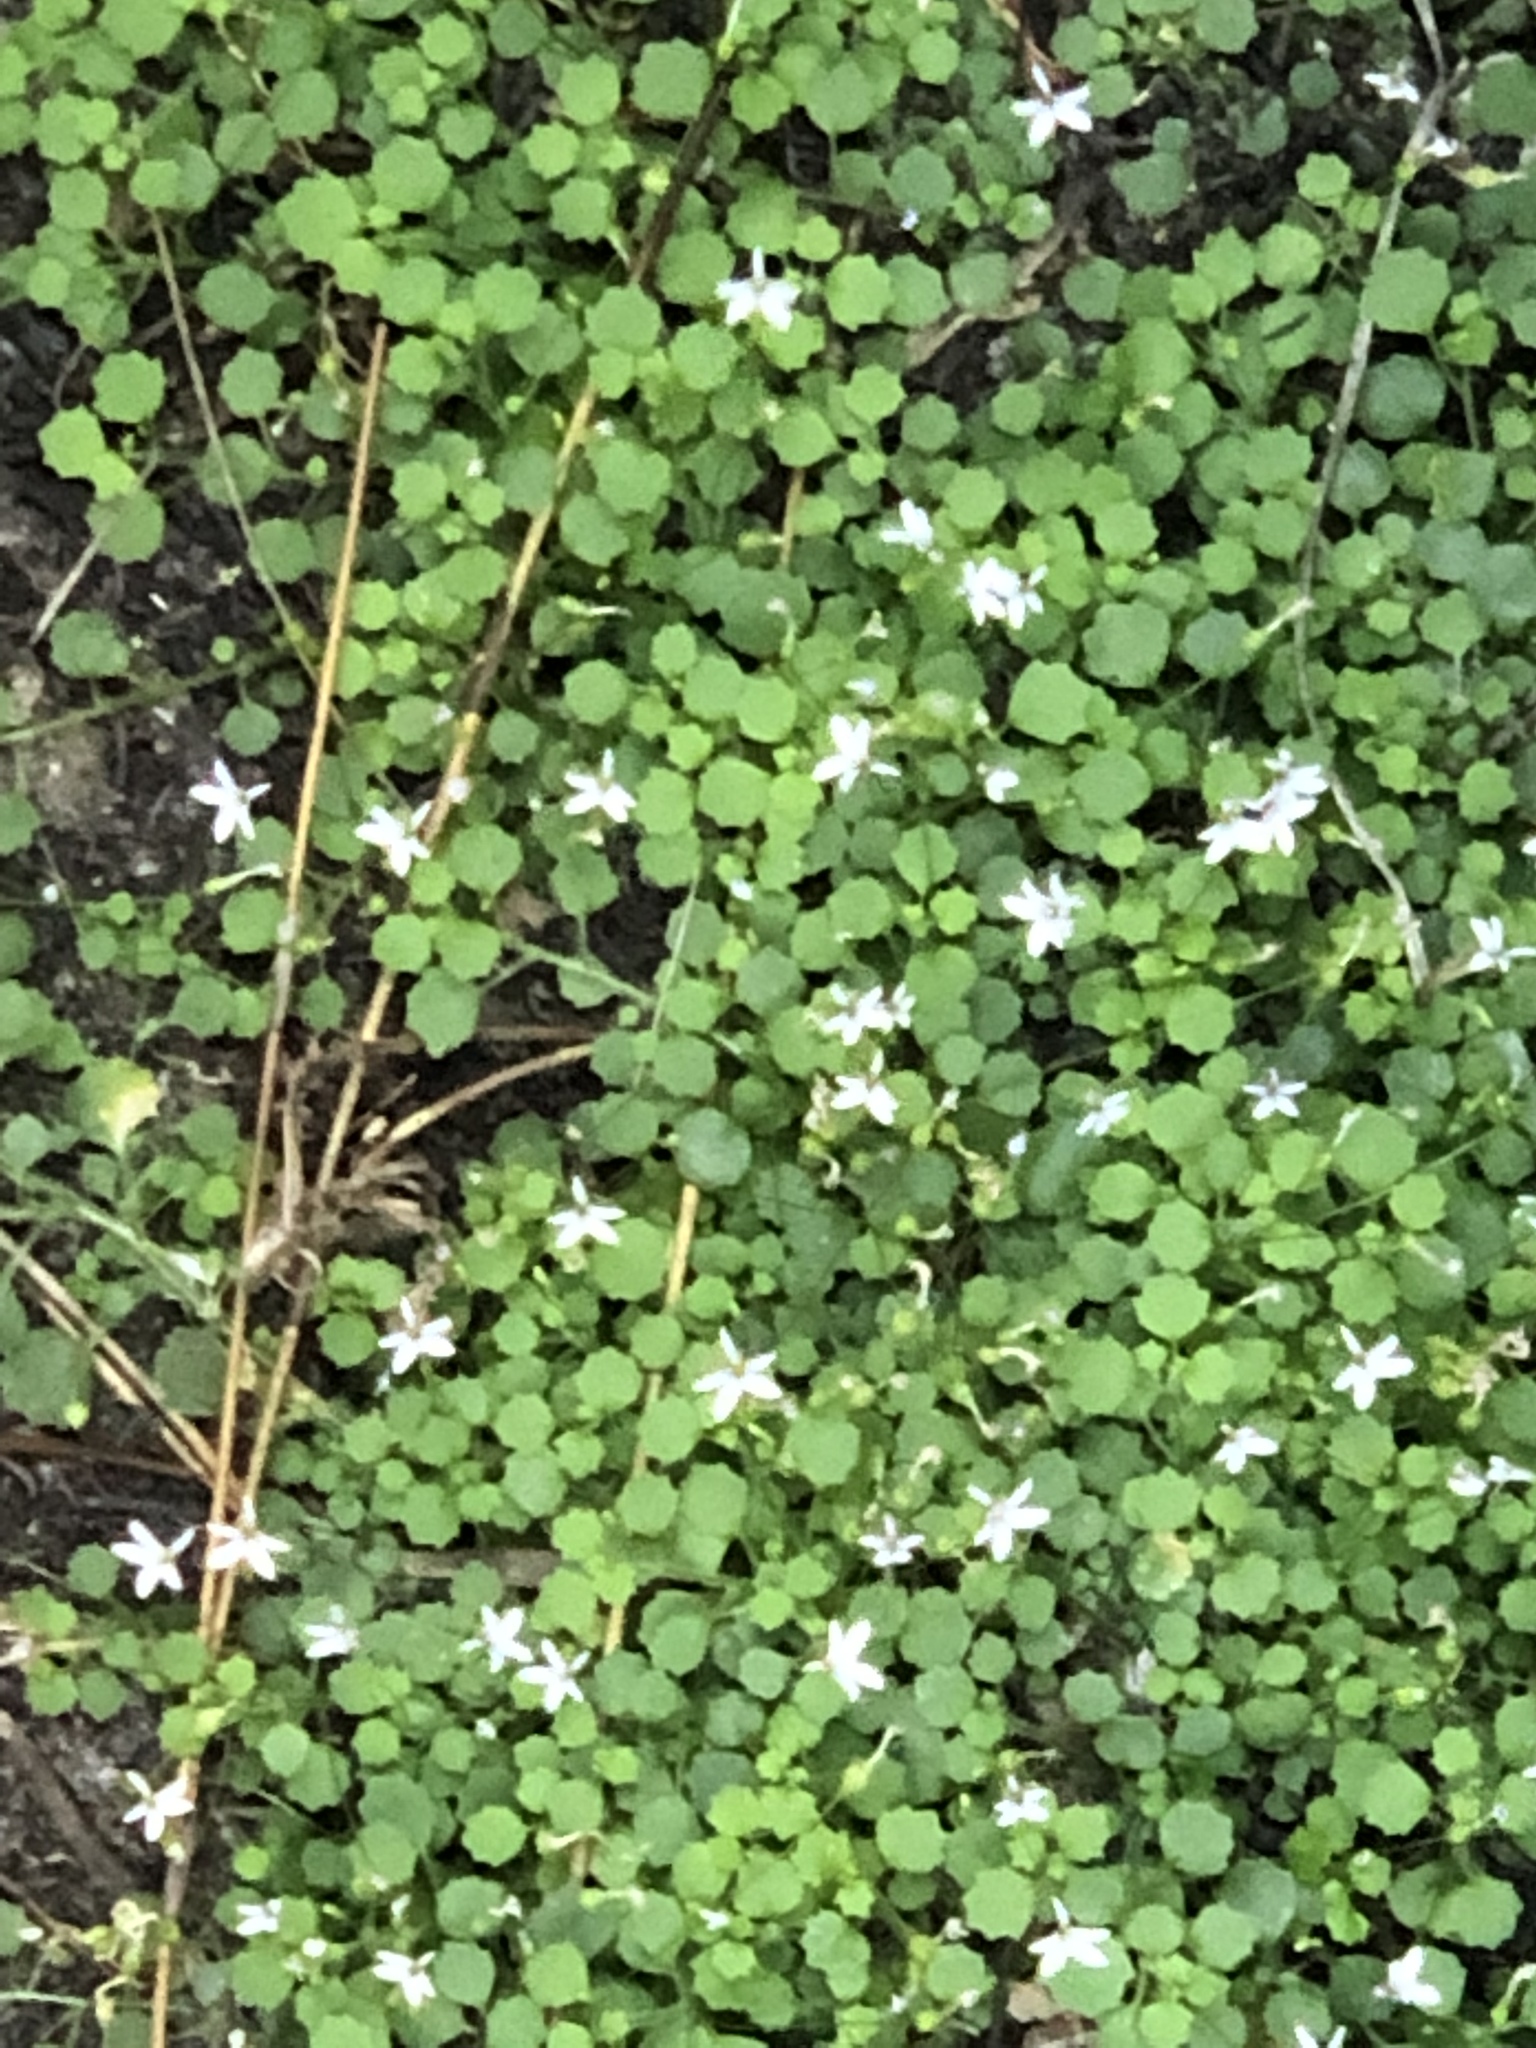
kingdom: Plantae
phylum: Tracheophyta
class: Magnoliopsida
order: Asterales
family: Campanulaceae
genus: Wimmerella
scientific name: Wimmerella pygmaea
